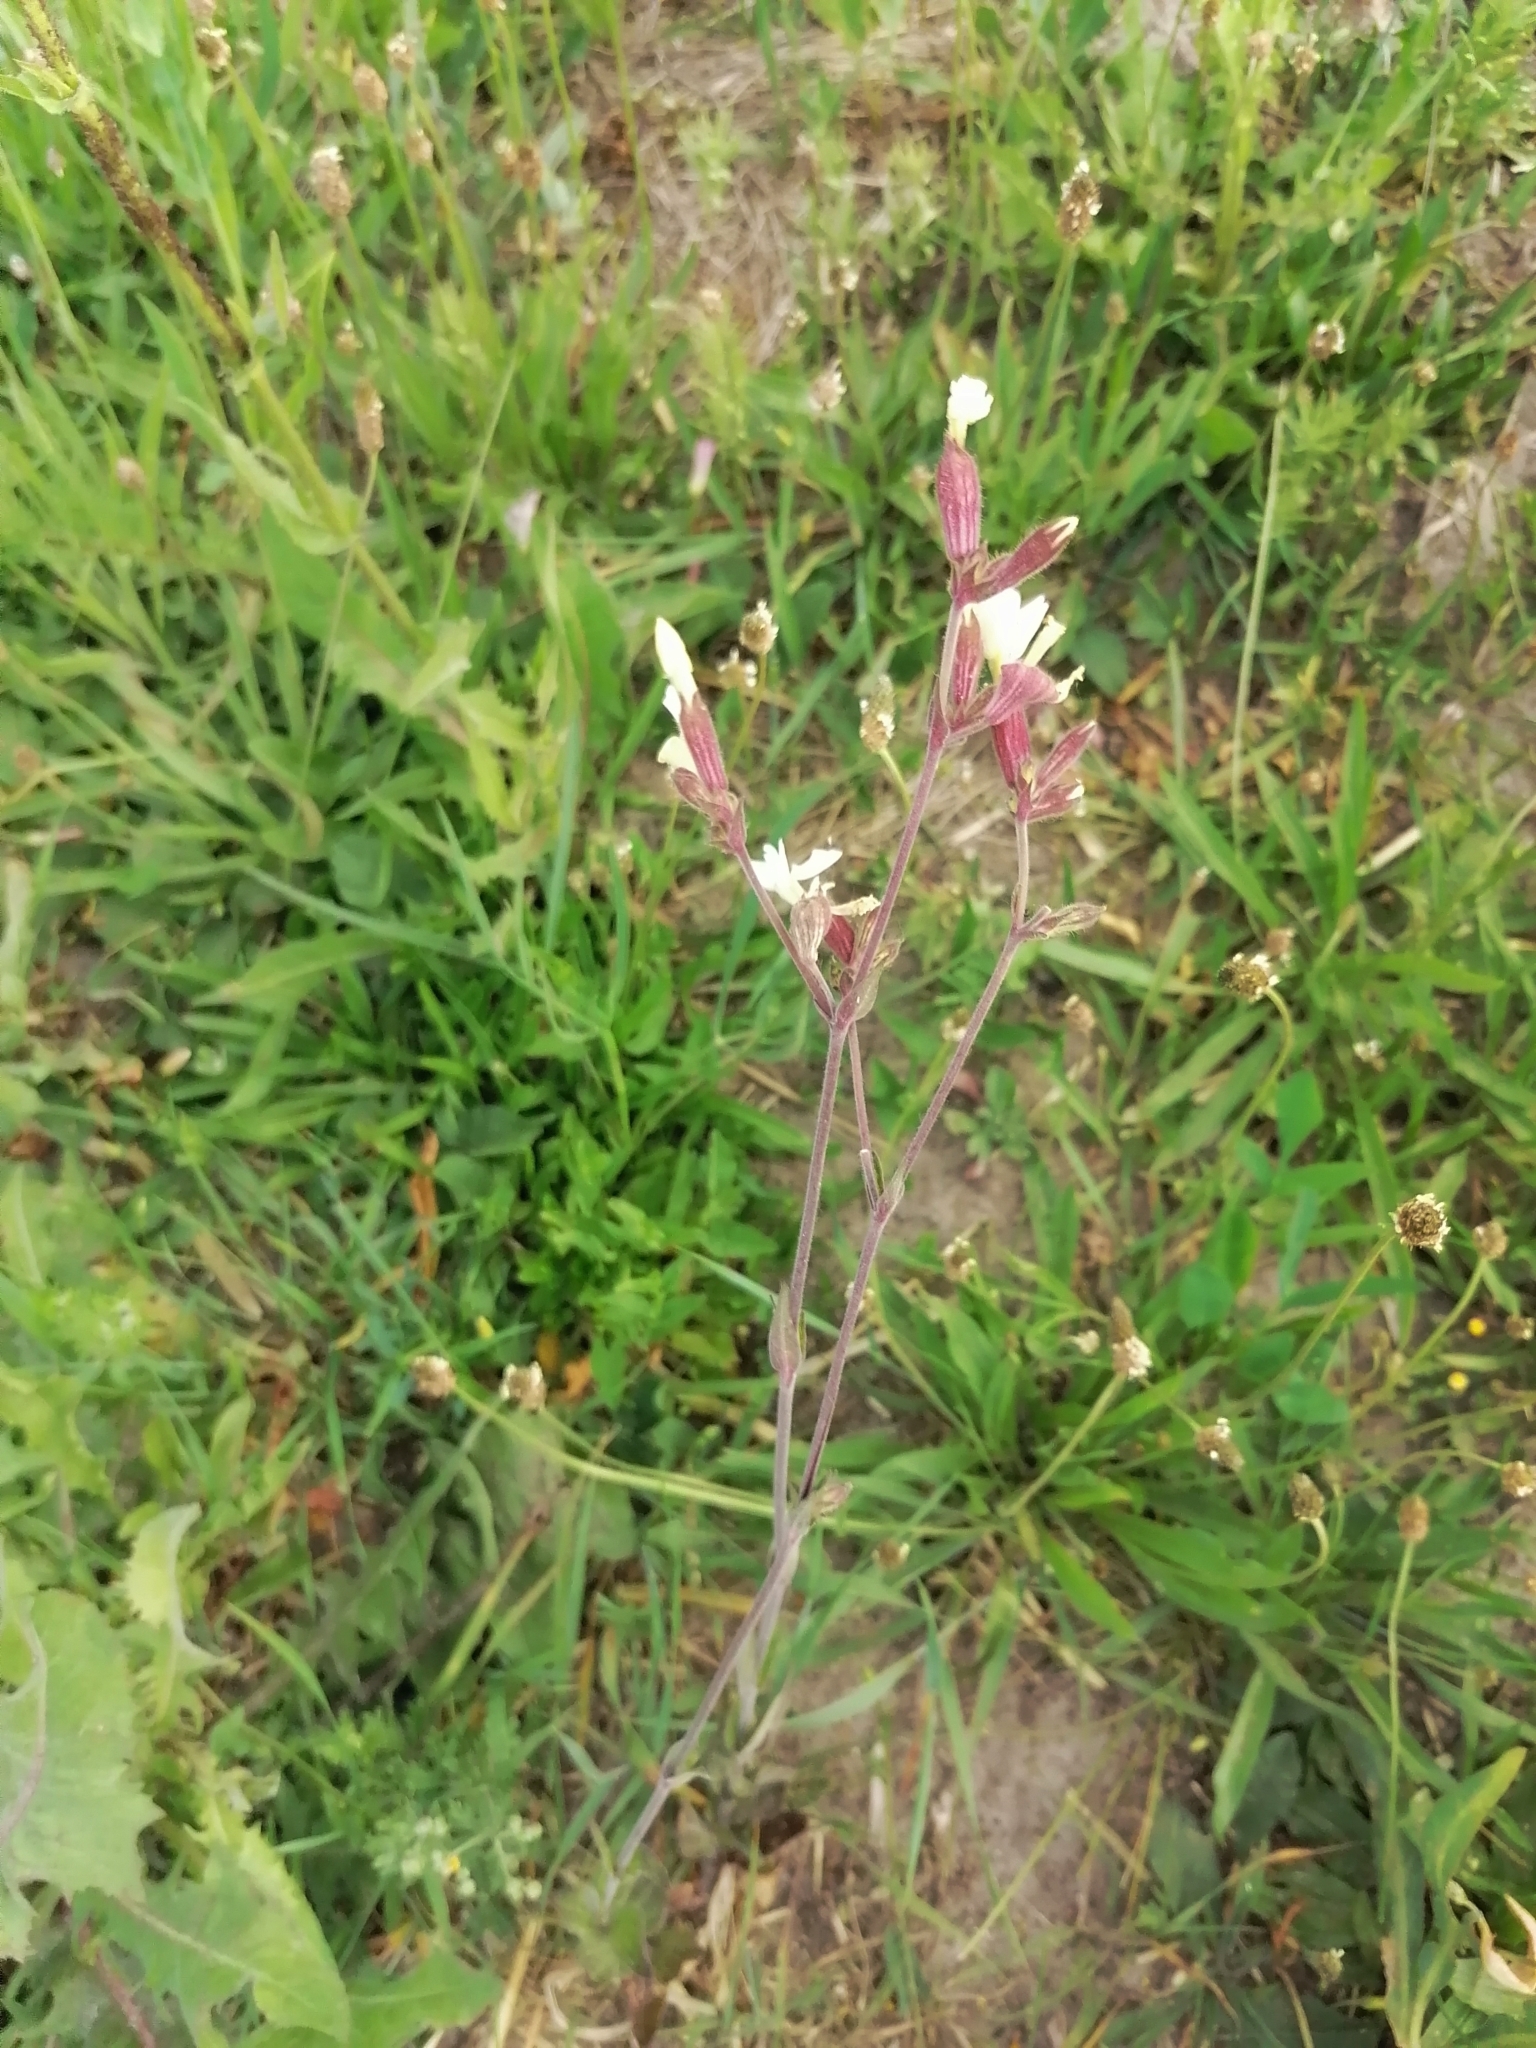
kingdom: Plantae
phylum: Tracheophyta
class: Magnoliopsida
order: Caryophyllales
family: Caryophyllaceae
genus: Silene
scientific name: Silene latifolia
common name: White campion
